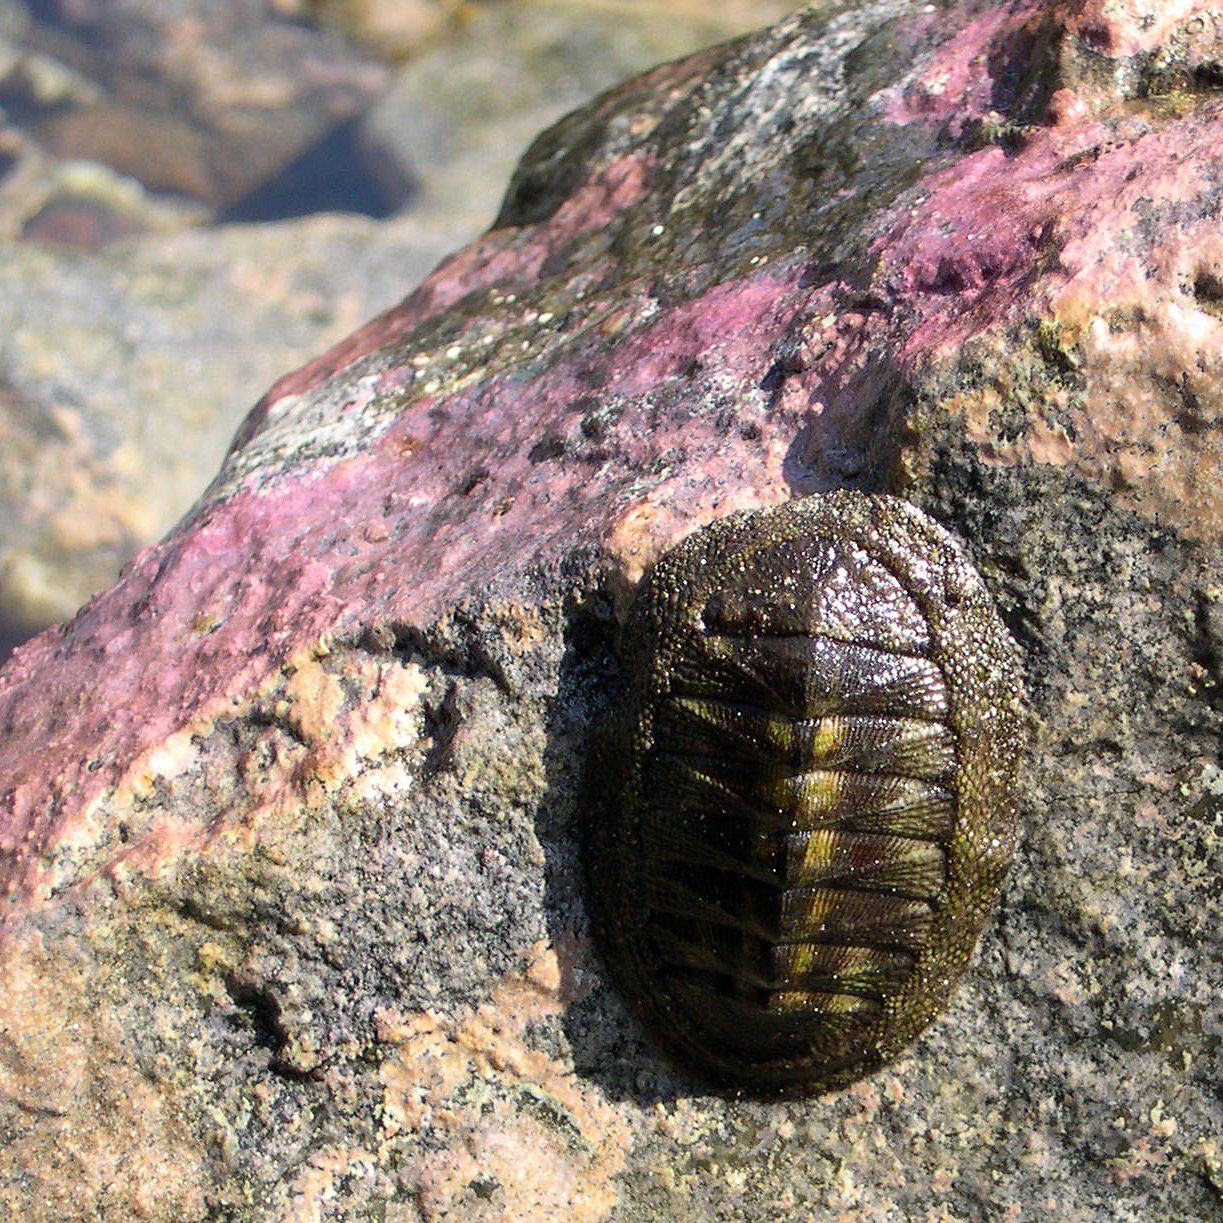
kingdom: Animalia
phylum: Mollusca
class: Polyplacophora
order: Chitonida
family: Chitonidae
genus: Chiton
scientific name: Chiton stokesii
